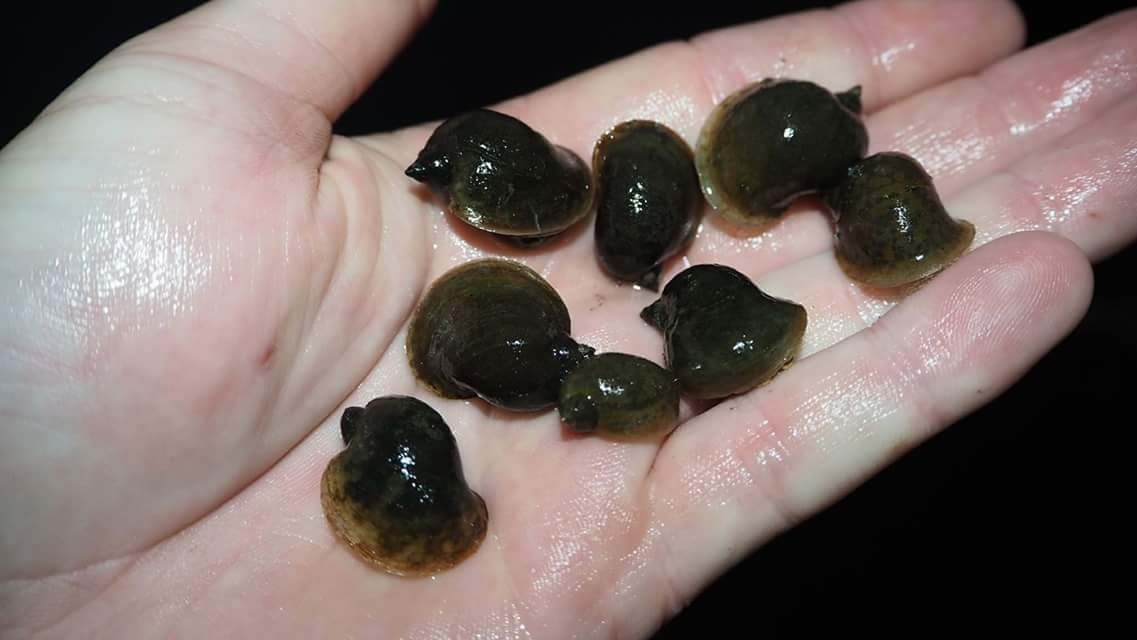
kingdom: Animalia
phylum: Mollusca
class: Gastropoda
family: Lymnaeidae
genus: Radix
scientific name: Radix auricularia
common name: Ear pond snail
